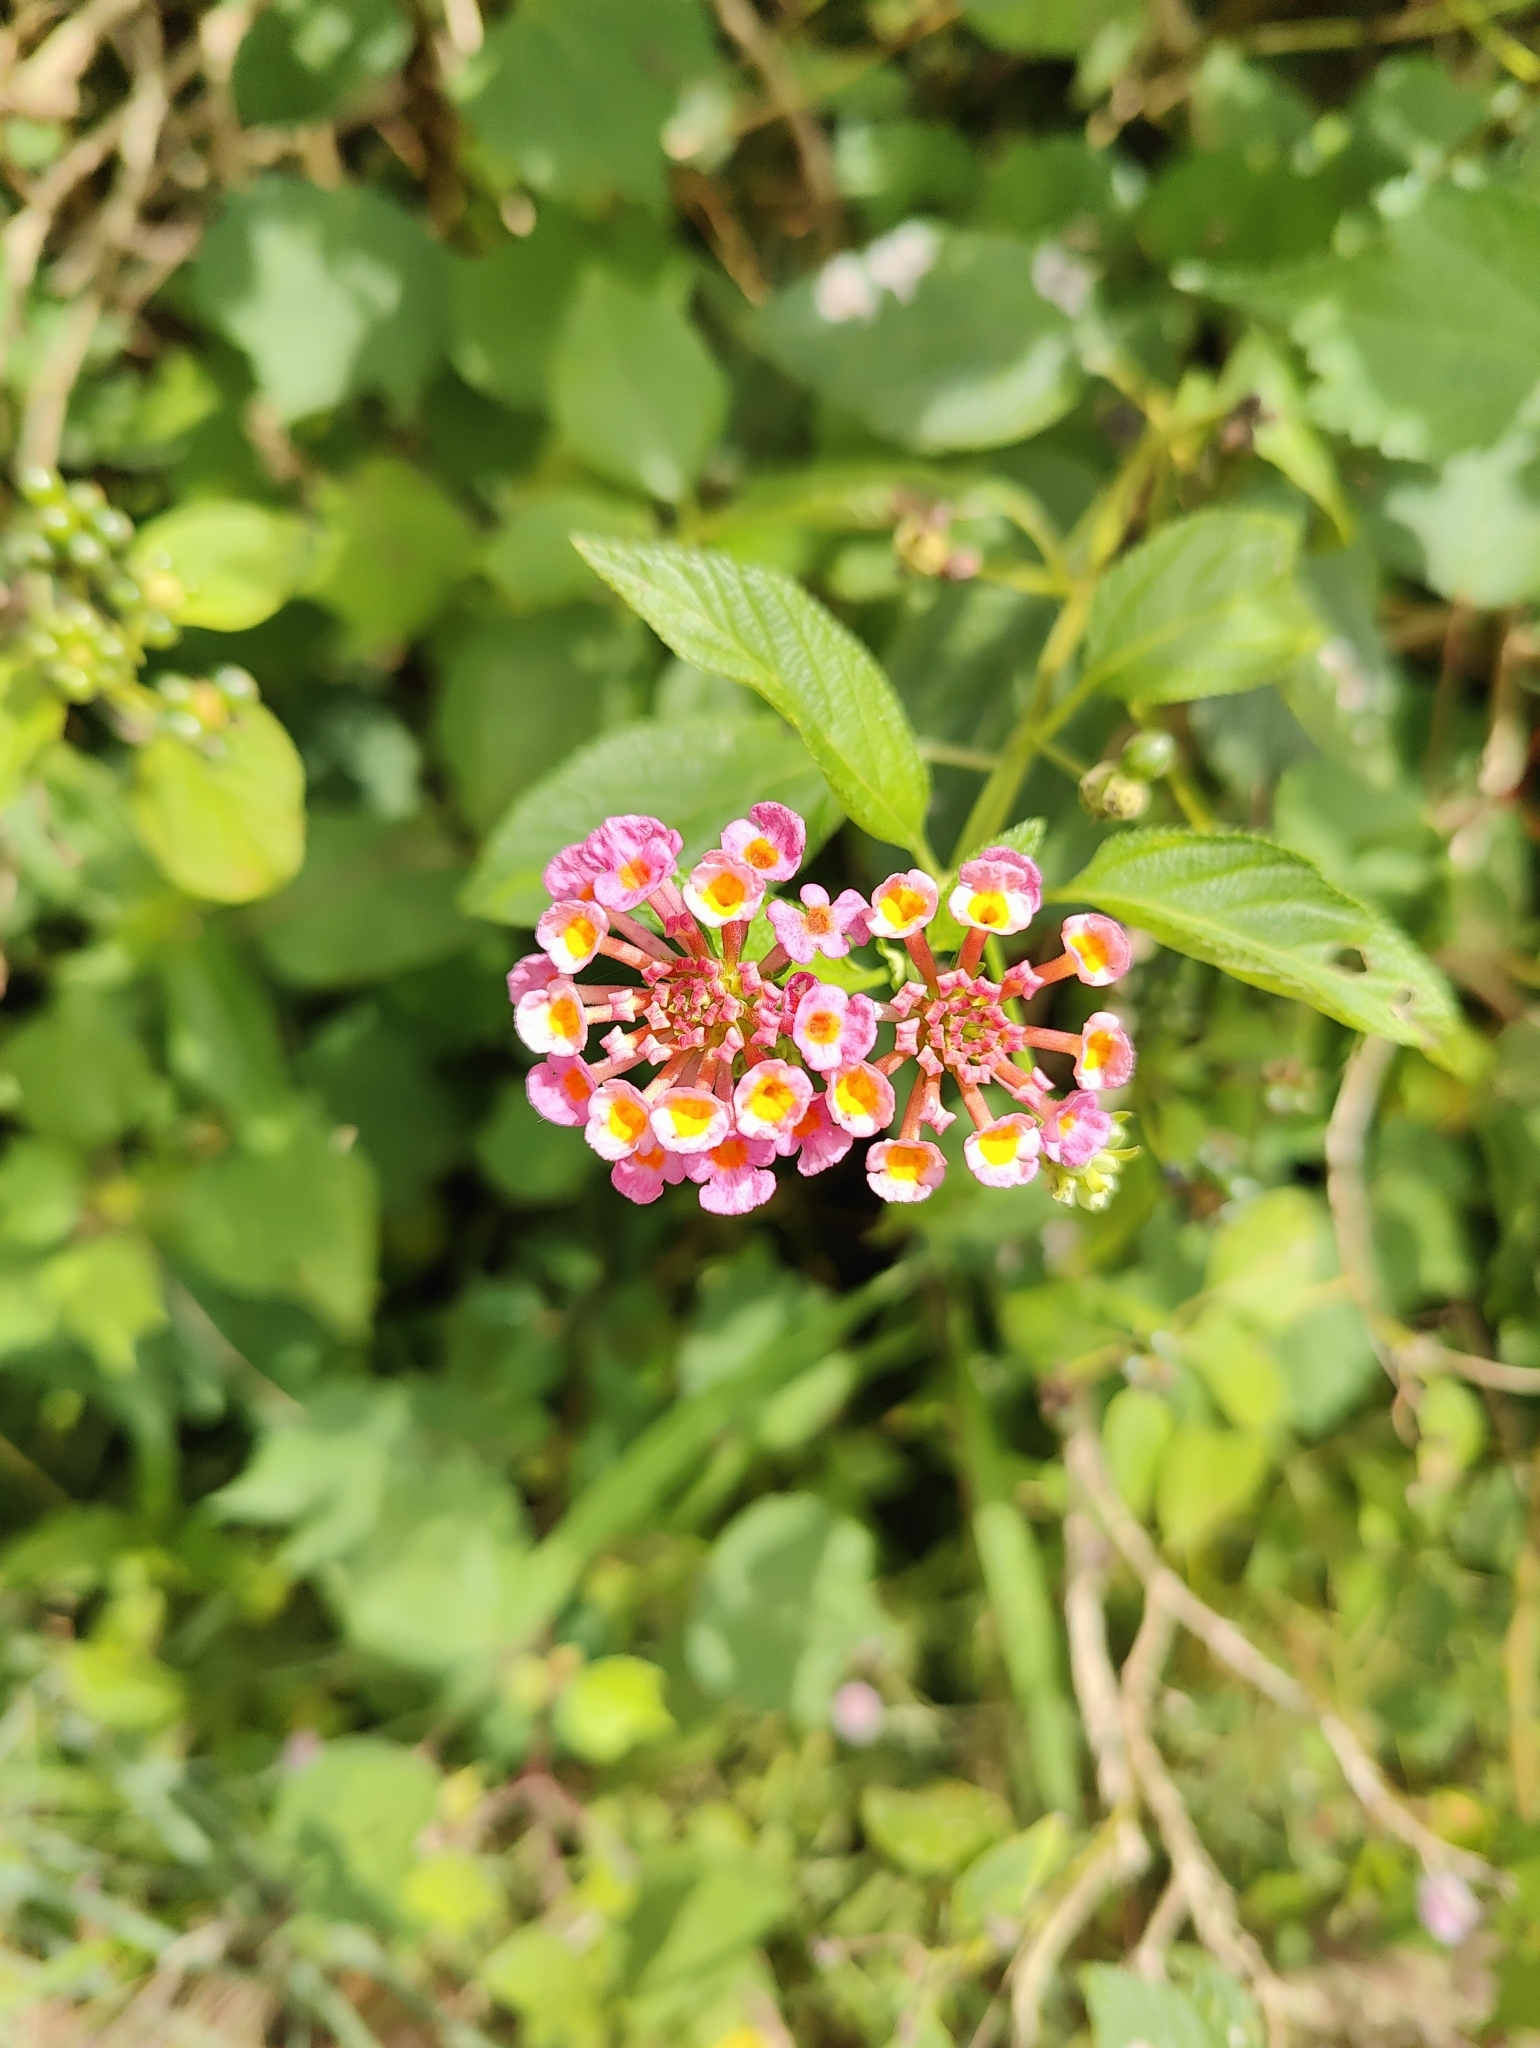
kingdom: Plantae
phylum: Tracheophyta
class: Magnoliopsida
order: Lamiales
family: Verbenaceae
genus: Lantana
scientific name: Lantana camara
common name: Lantana
